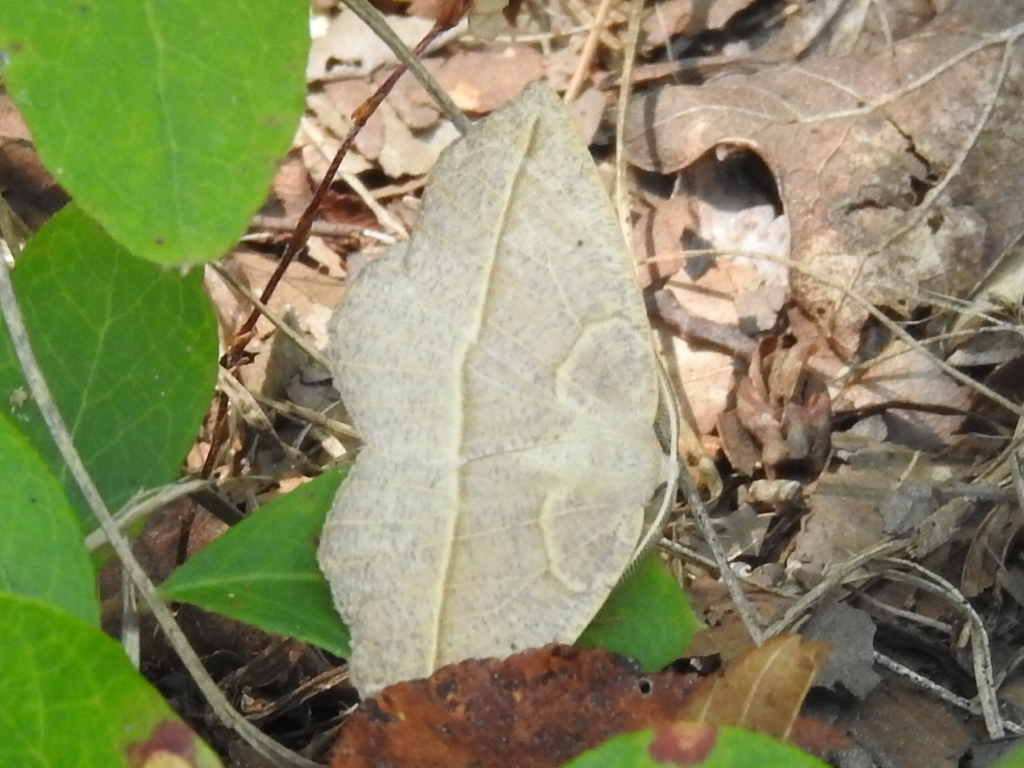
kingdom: Animalia
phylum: Arthropoda
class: Insecta
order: Lepidoptera
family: Geometridae
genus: Eusarca
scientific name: Eusarca confusaria
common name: Confused eusarca
